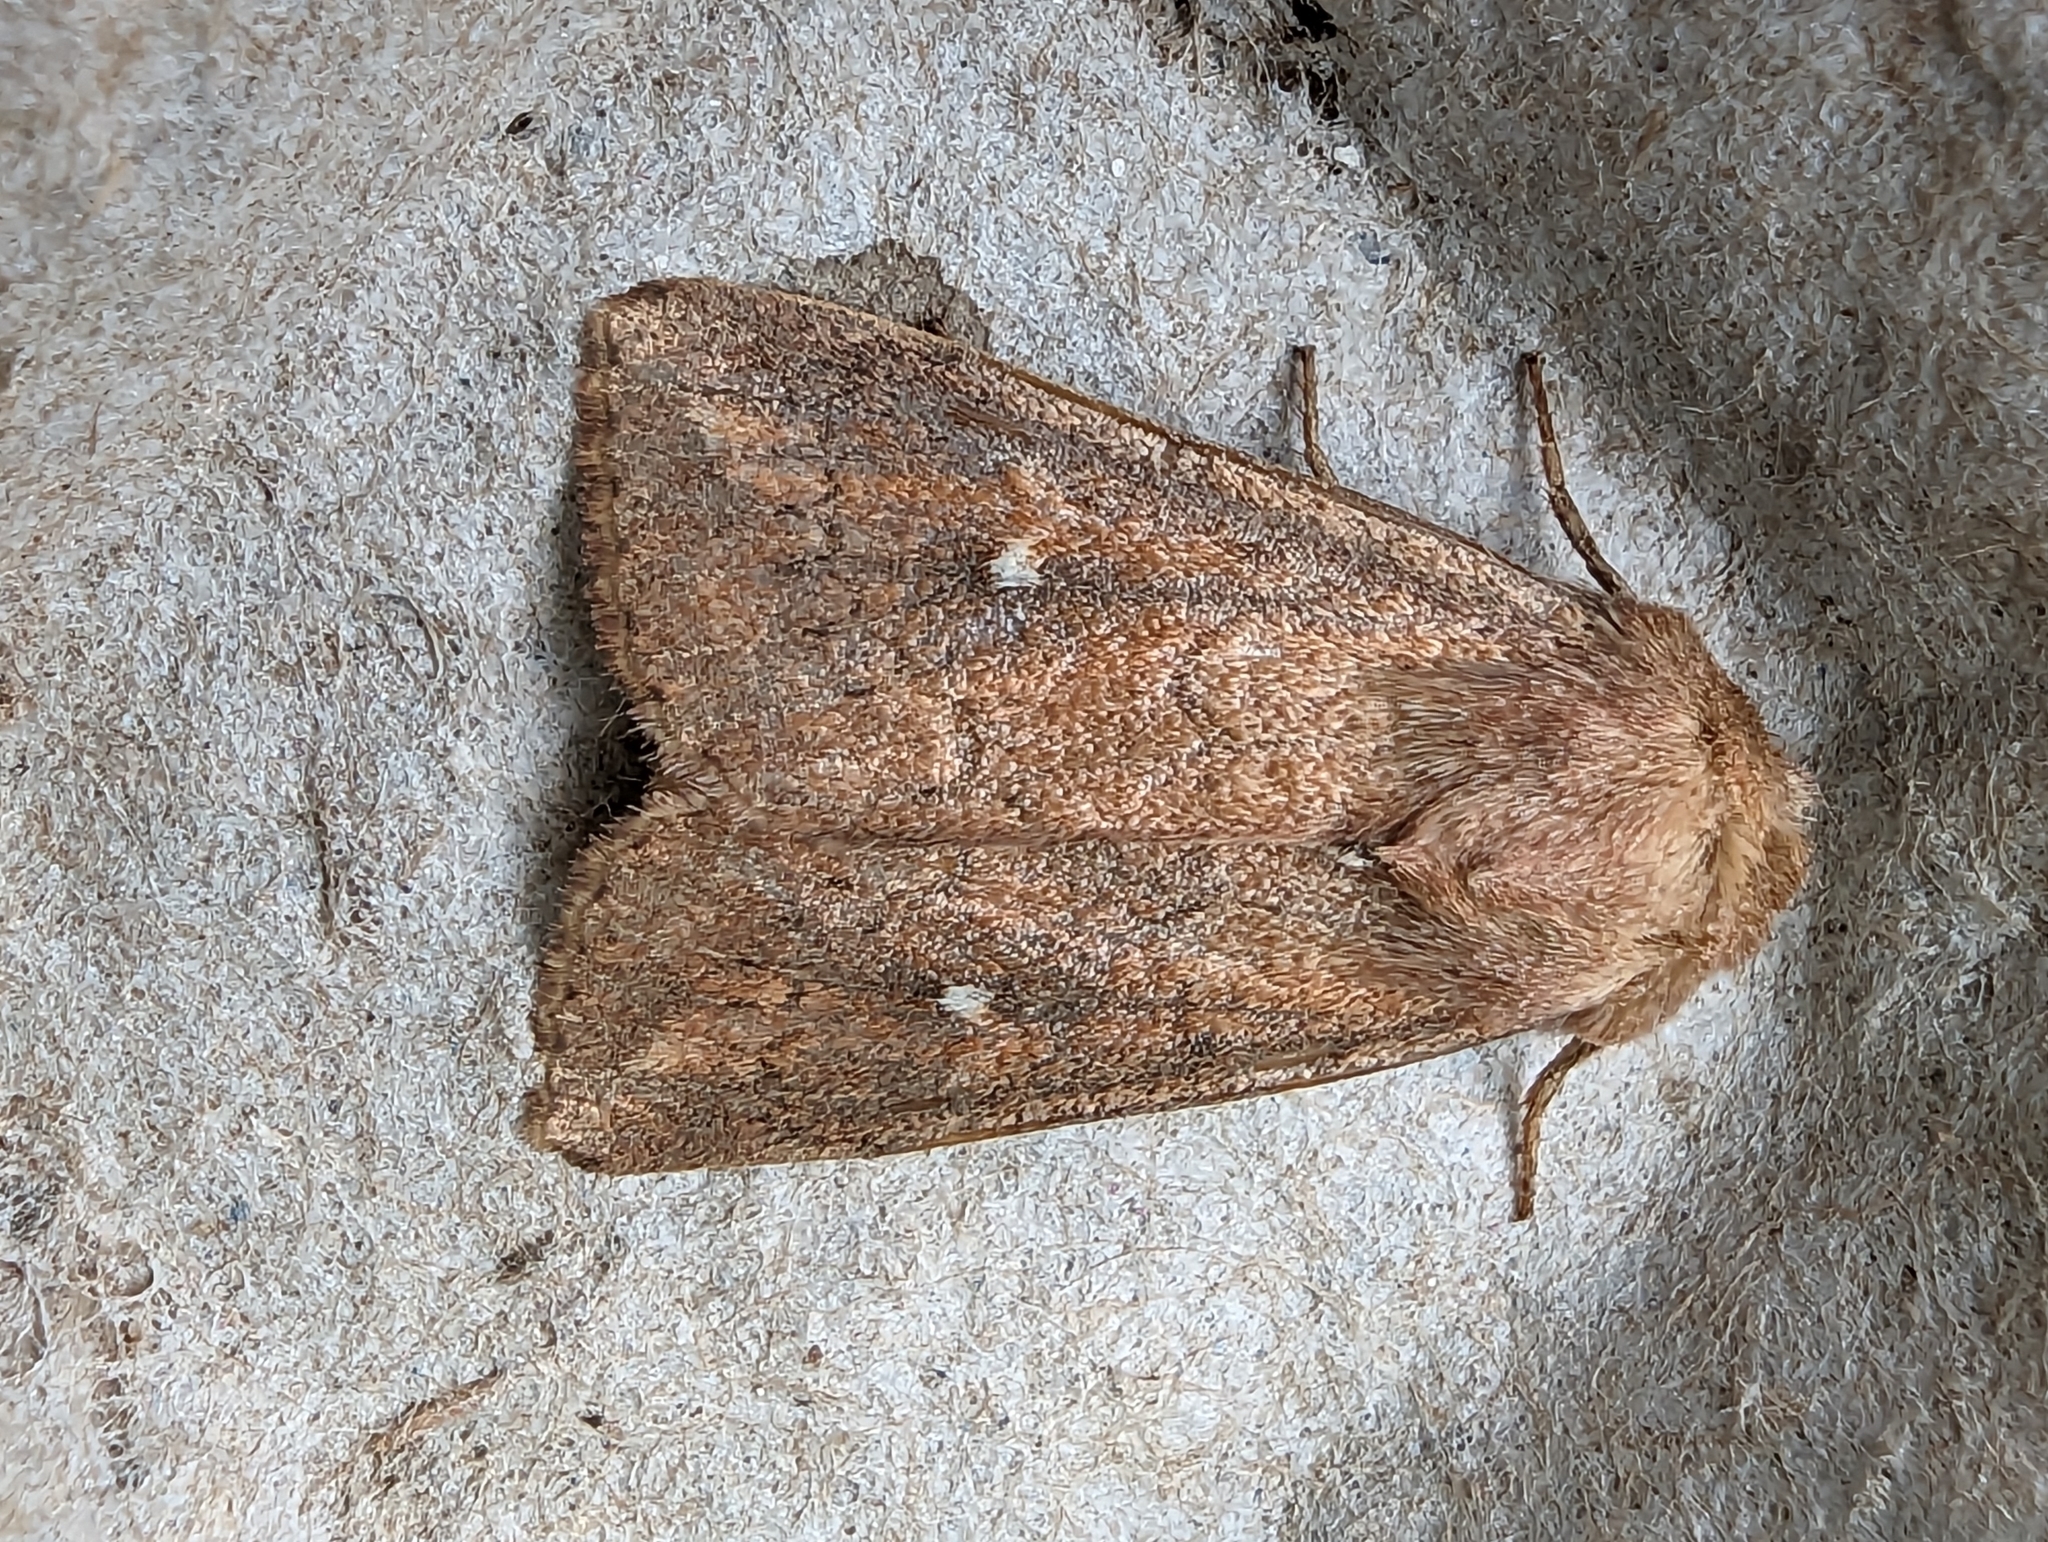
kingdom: Animalia
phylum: Arthropoda
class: Insecta
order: Lepidoptera
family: Noctuidae
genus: Mythimna
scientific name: Mythimna albipuncta
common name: White-point
